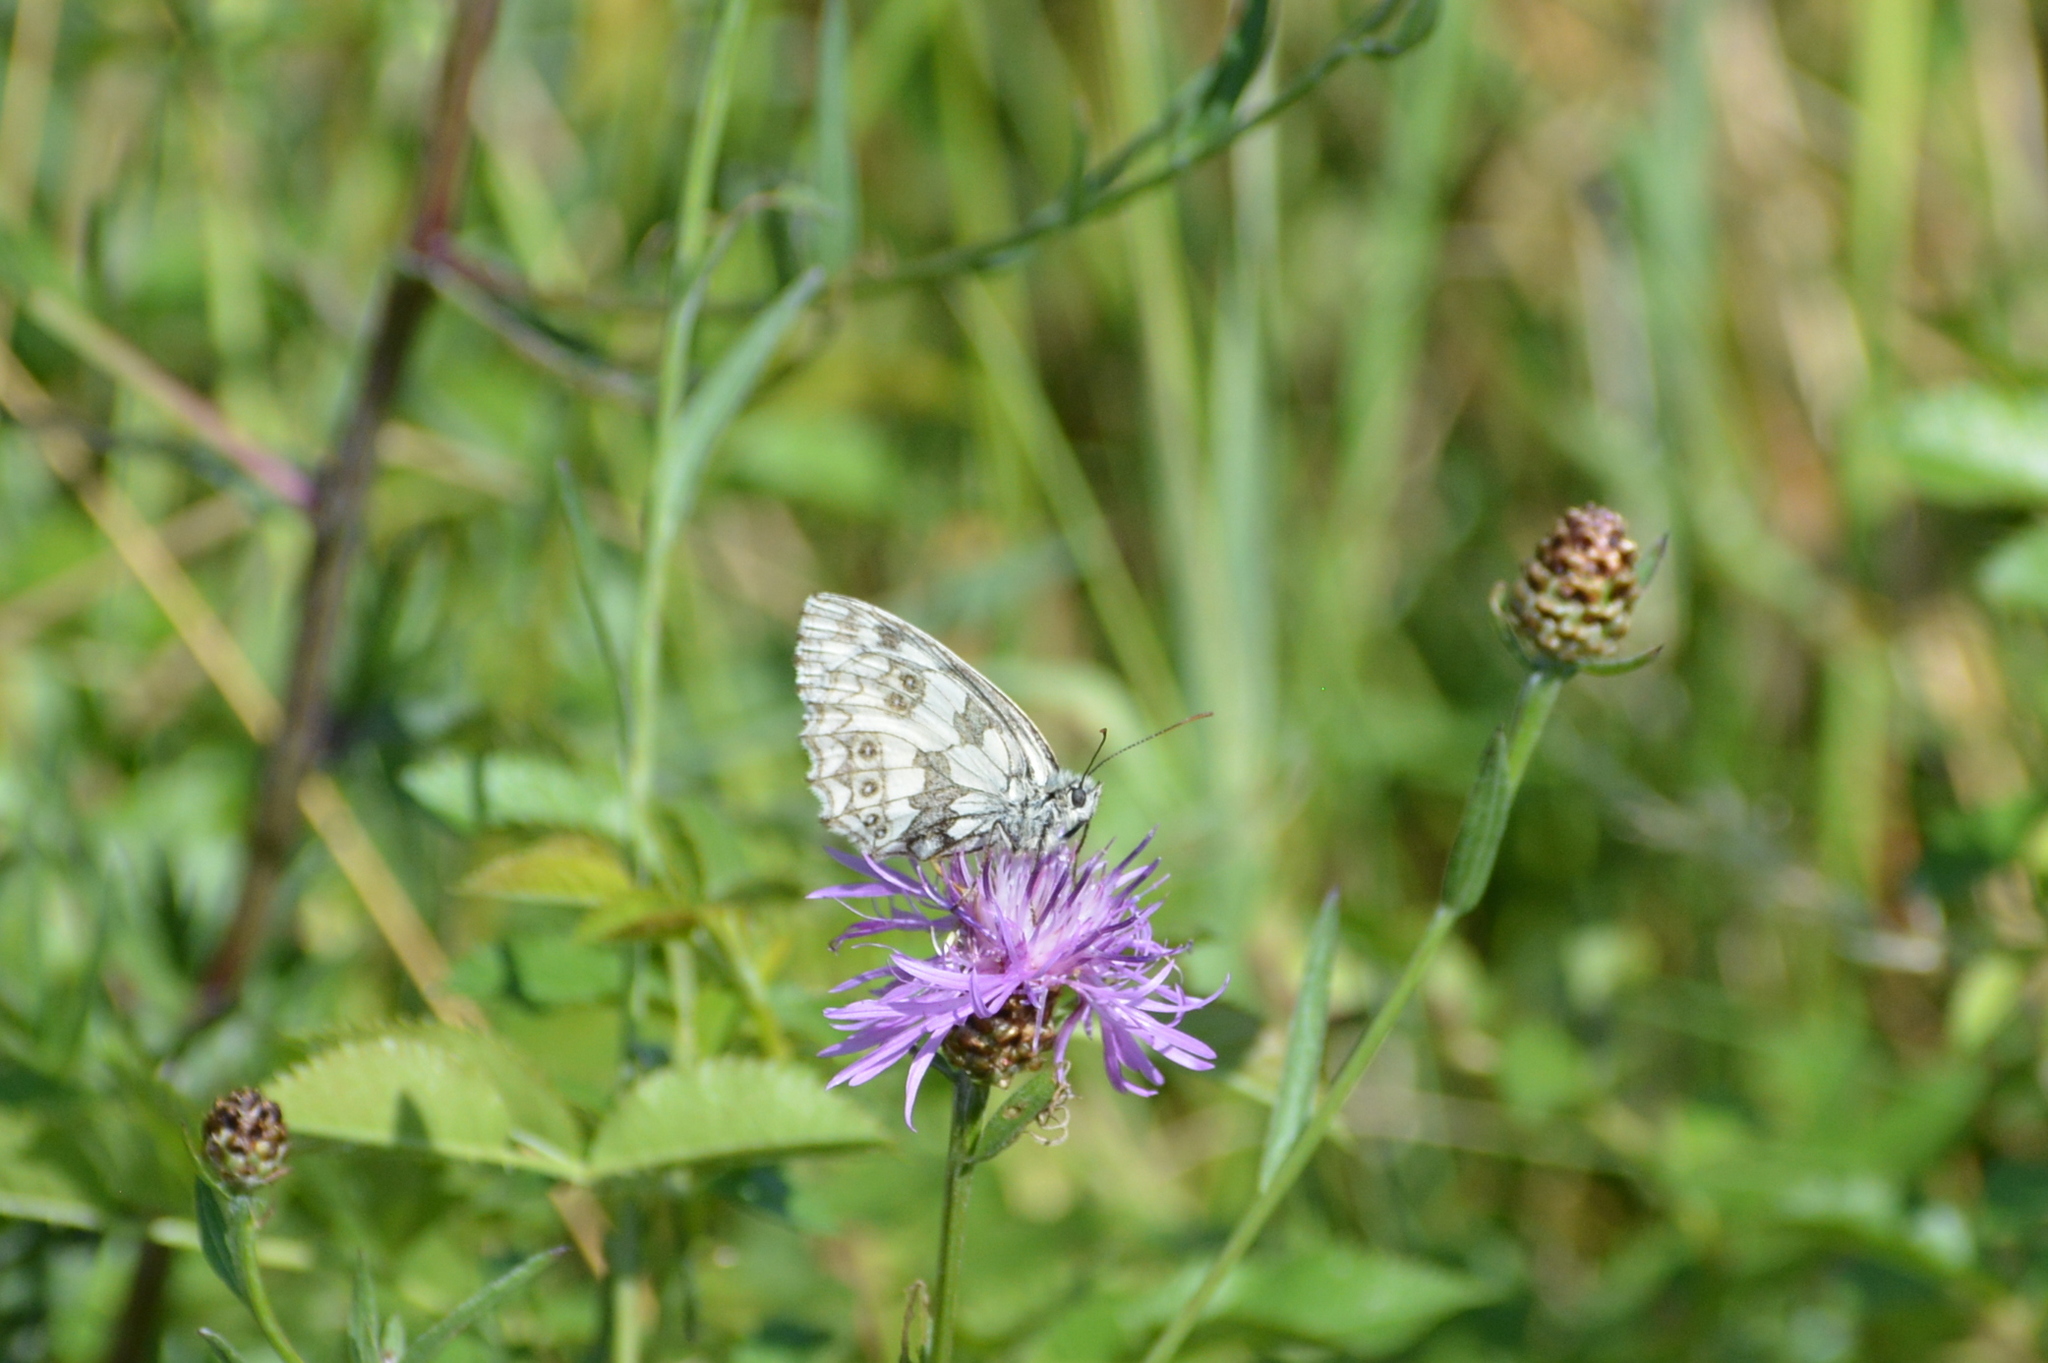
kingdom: Animalia
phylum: Arthropoda
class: Insecta
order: Lepidoptera
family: Nymphalidae
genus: Melanargia
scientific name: Melanargia galathea
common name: Marbled white
